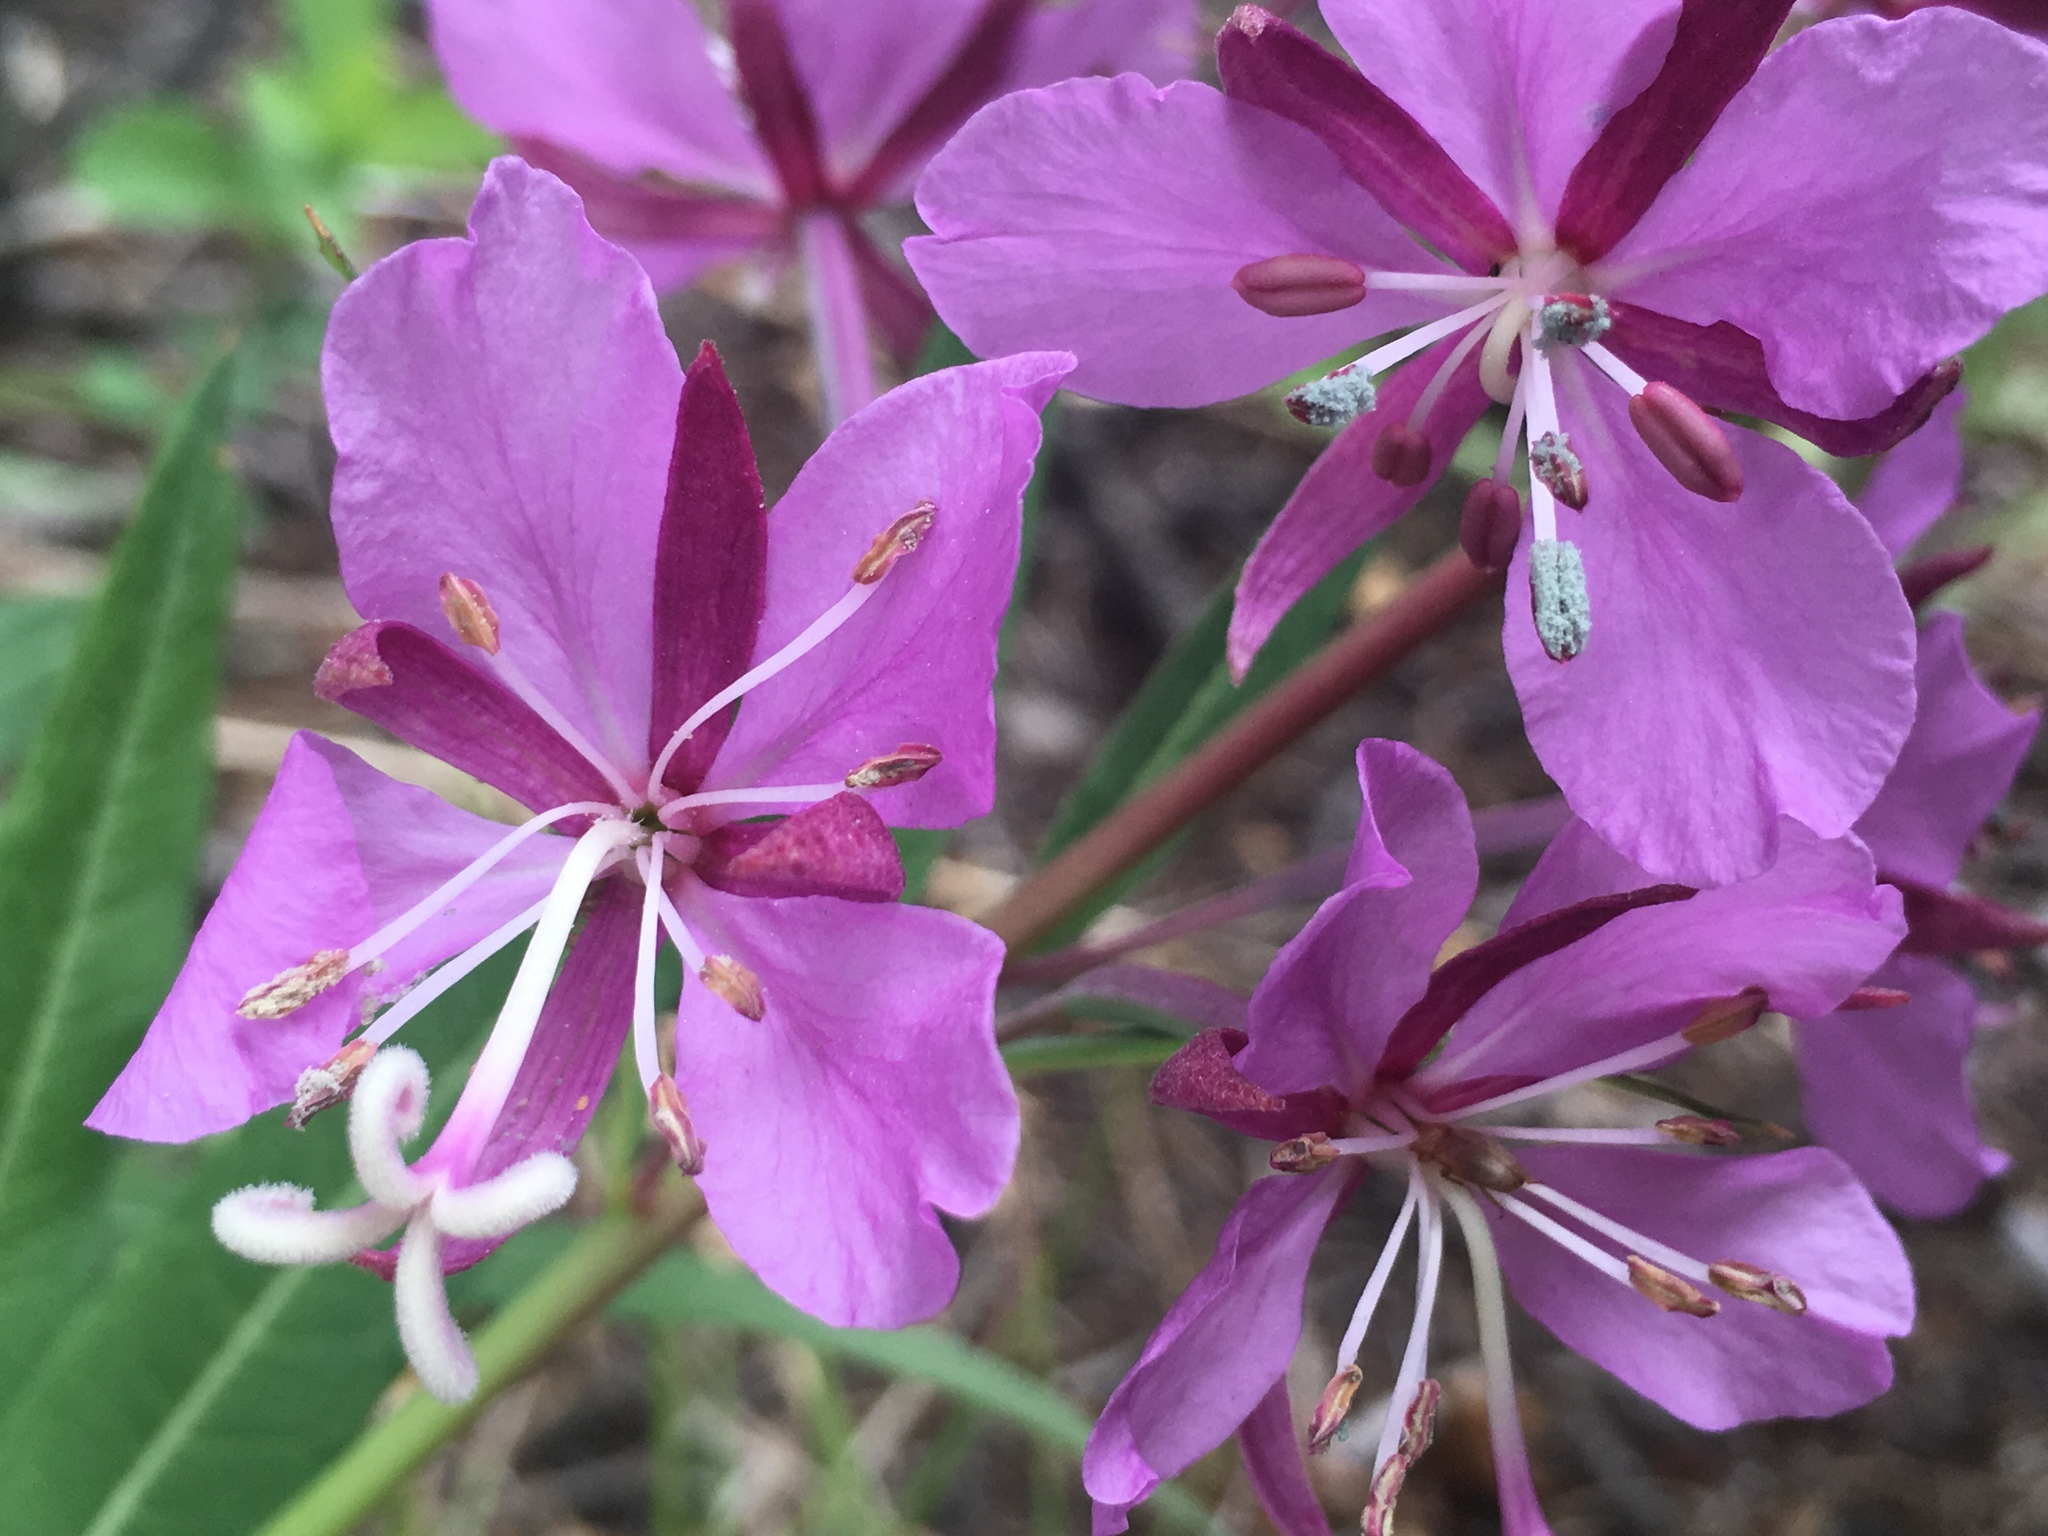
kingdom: Plantae
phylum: Tracheophyta
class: Magnoliopsida
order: Myrtales
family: Onagraceae
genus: Chamaenerion
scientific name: Chamaenerion angustifolium
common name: Fireweed
